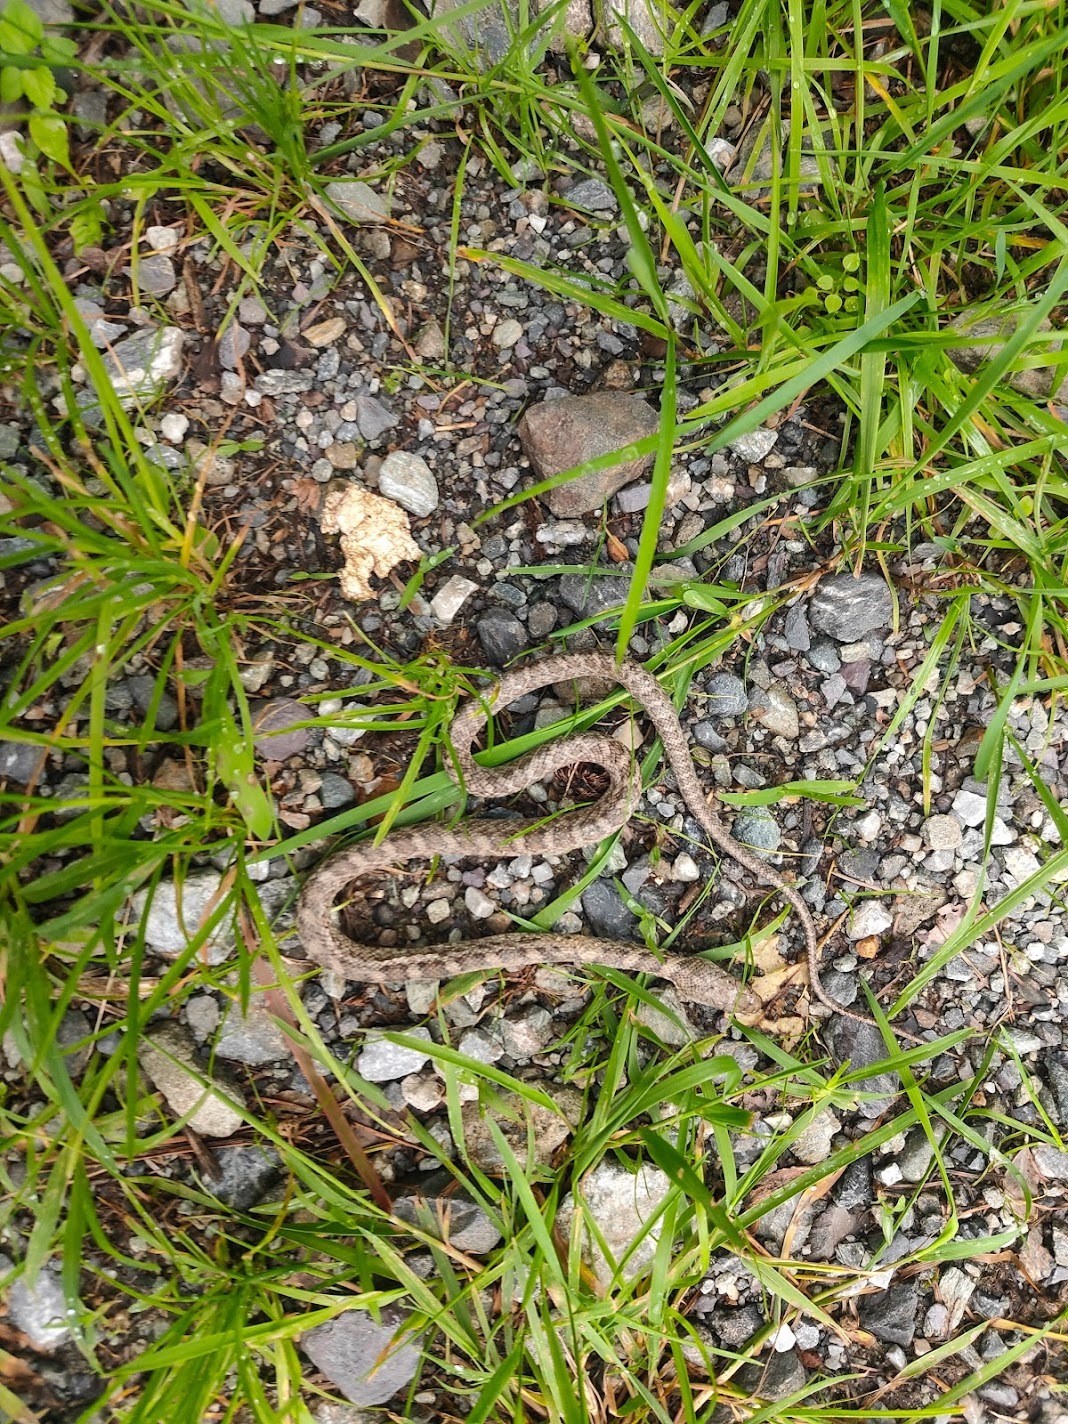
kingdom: Animalia
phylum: Chordata
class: Squamata
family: Colubridae
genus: Elaphe
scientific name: Elaphe climacophora
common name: Japanese ratsnake
